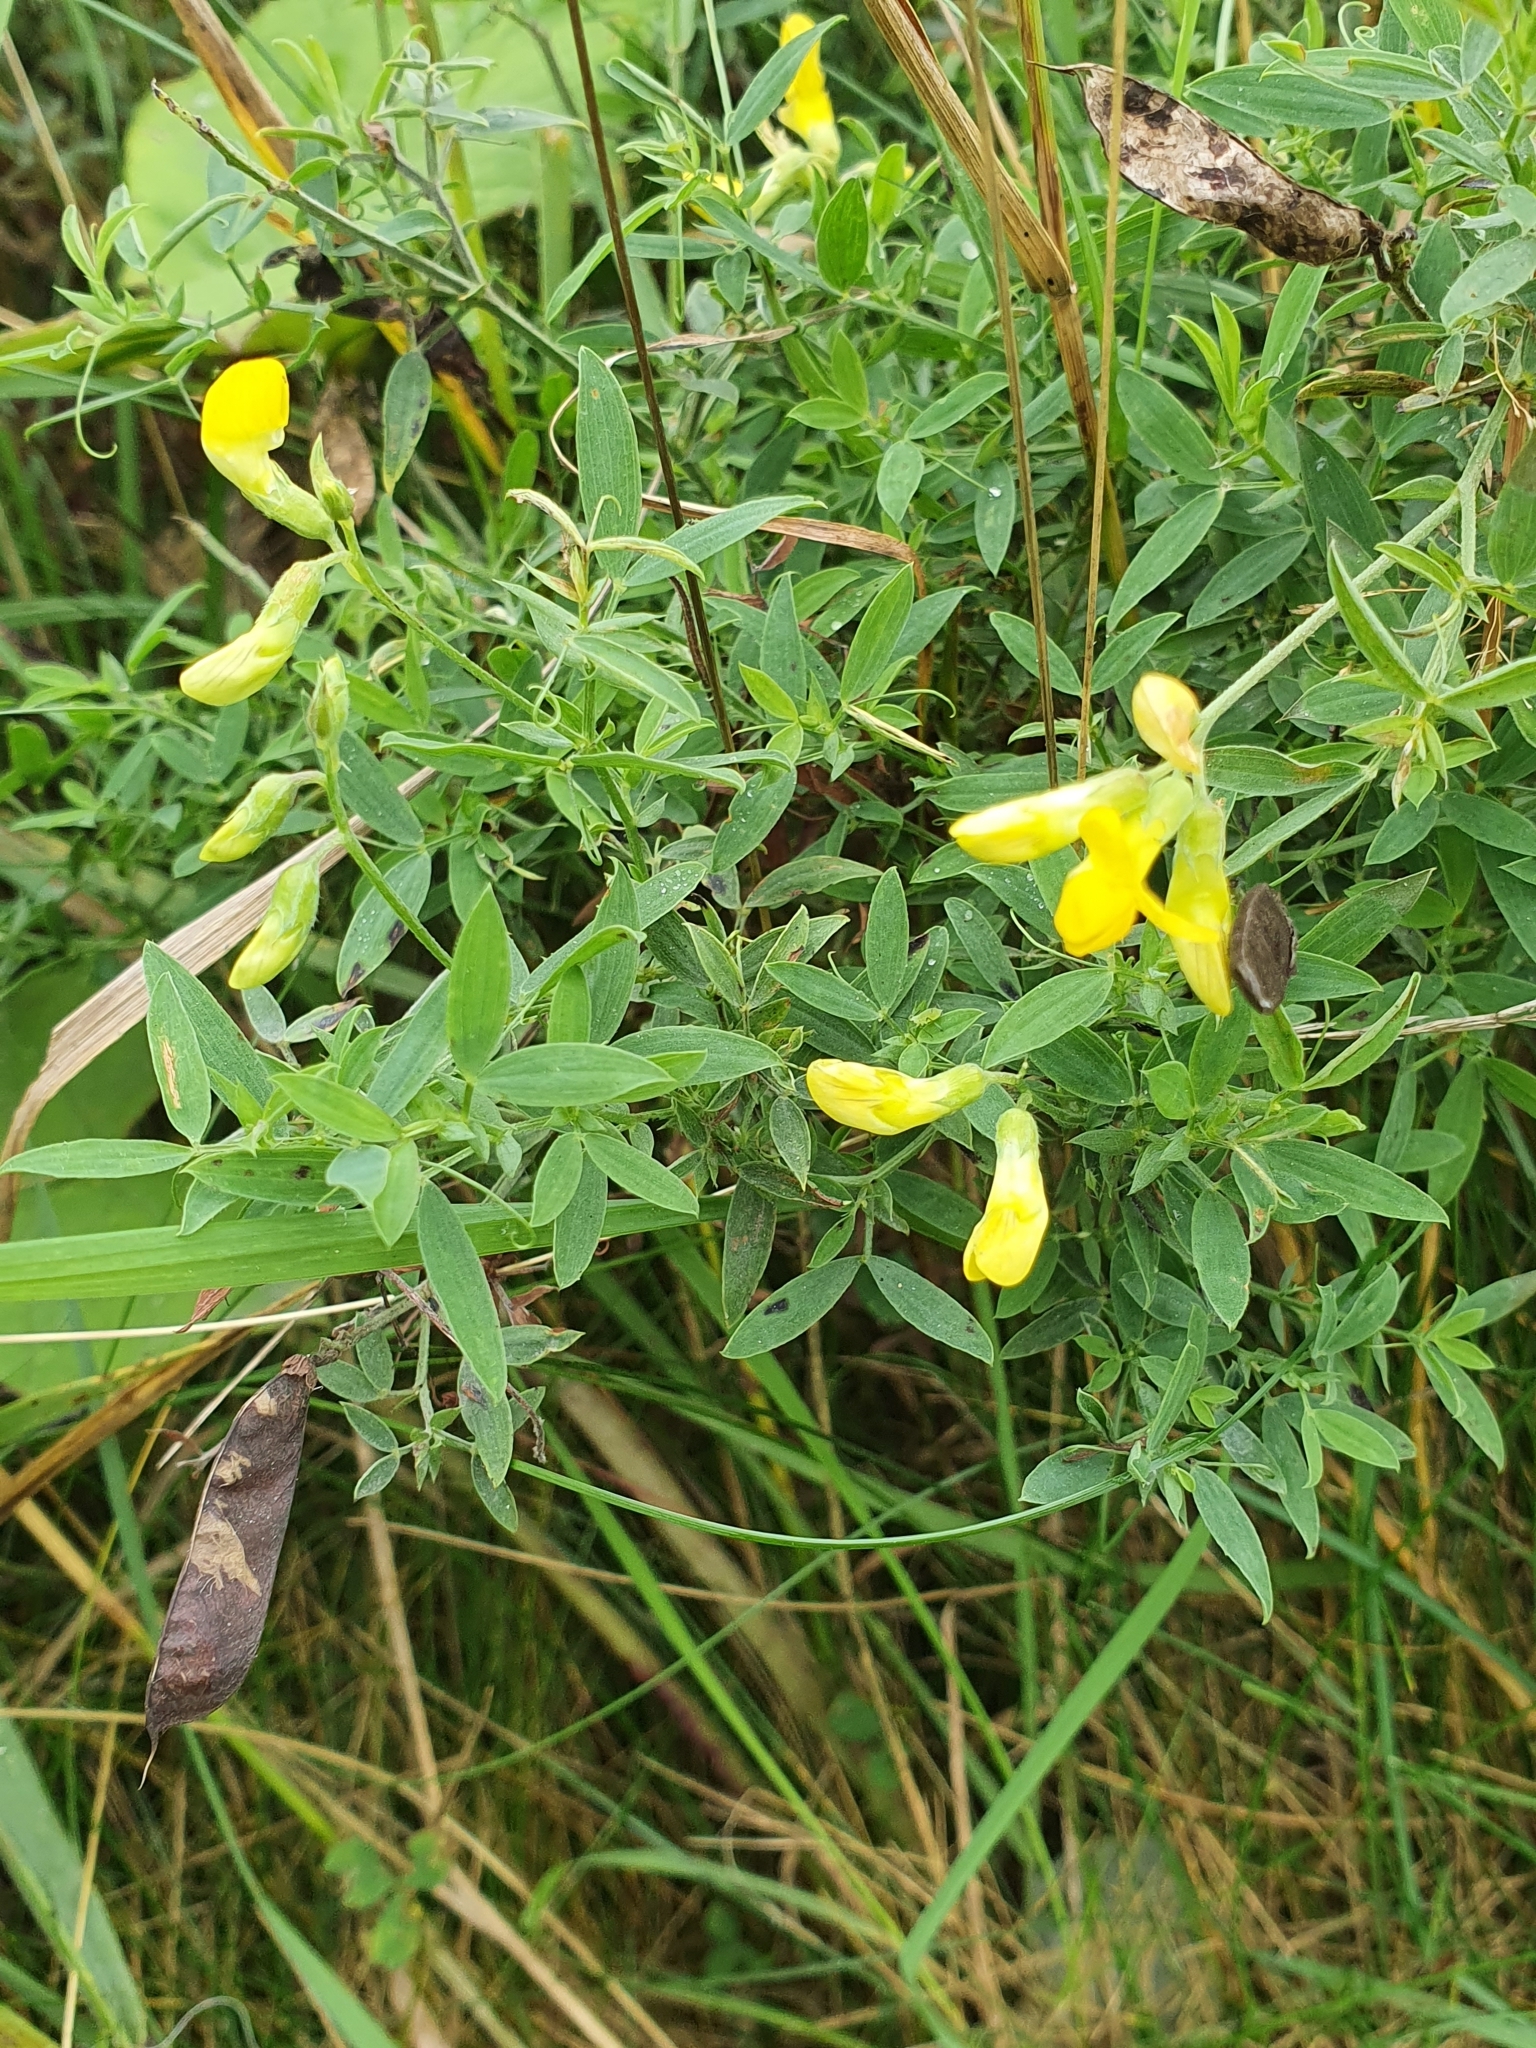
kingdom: Plantae
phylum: Tracheophyta
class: Magnoliopsida
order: Fabales
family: Fabaceae
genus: Lathyrus
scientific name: Lathyrus pratensis
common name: Meadow vetchling
